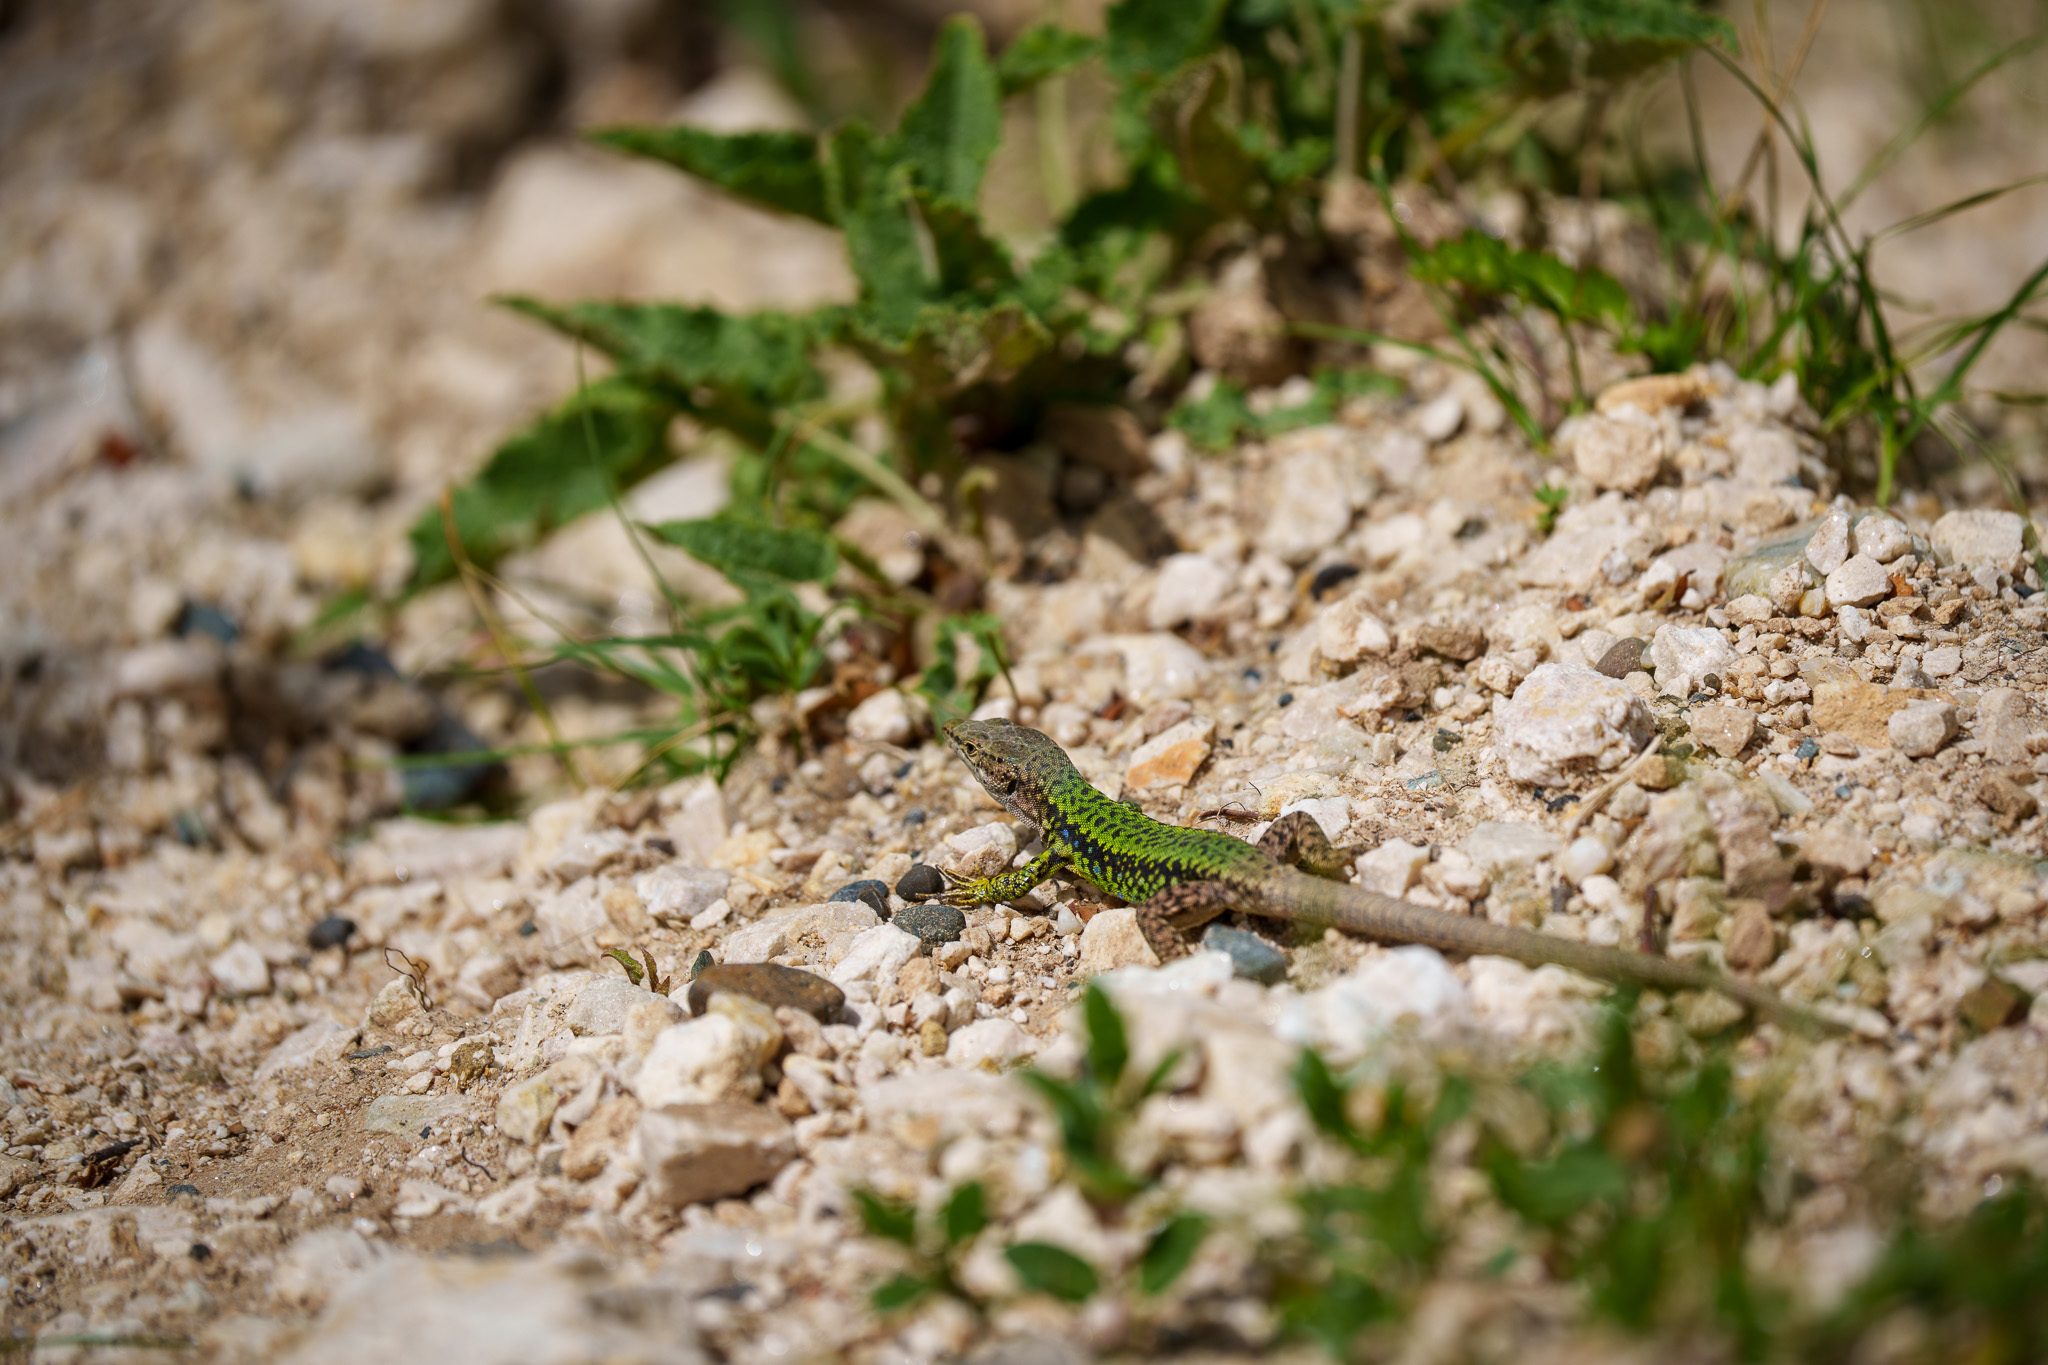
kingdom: Animalia
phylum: Chordata
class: Squamata
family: Lacertidae
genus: Darevskia
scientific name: Darevskia brauneri
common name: Brauner's rock lizard
